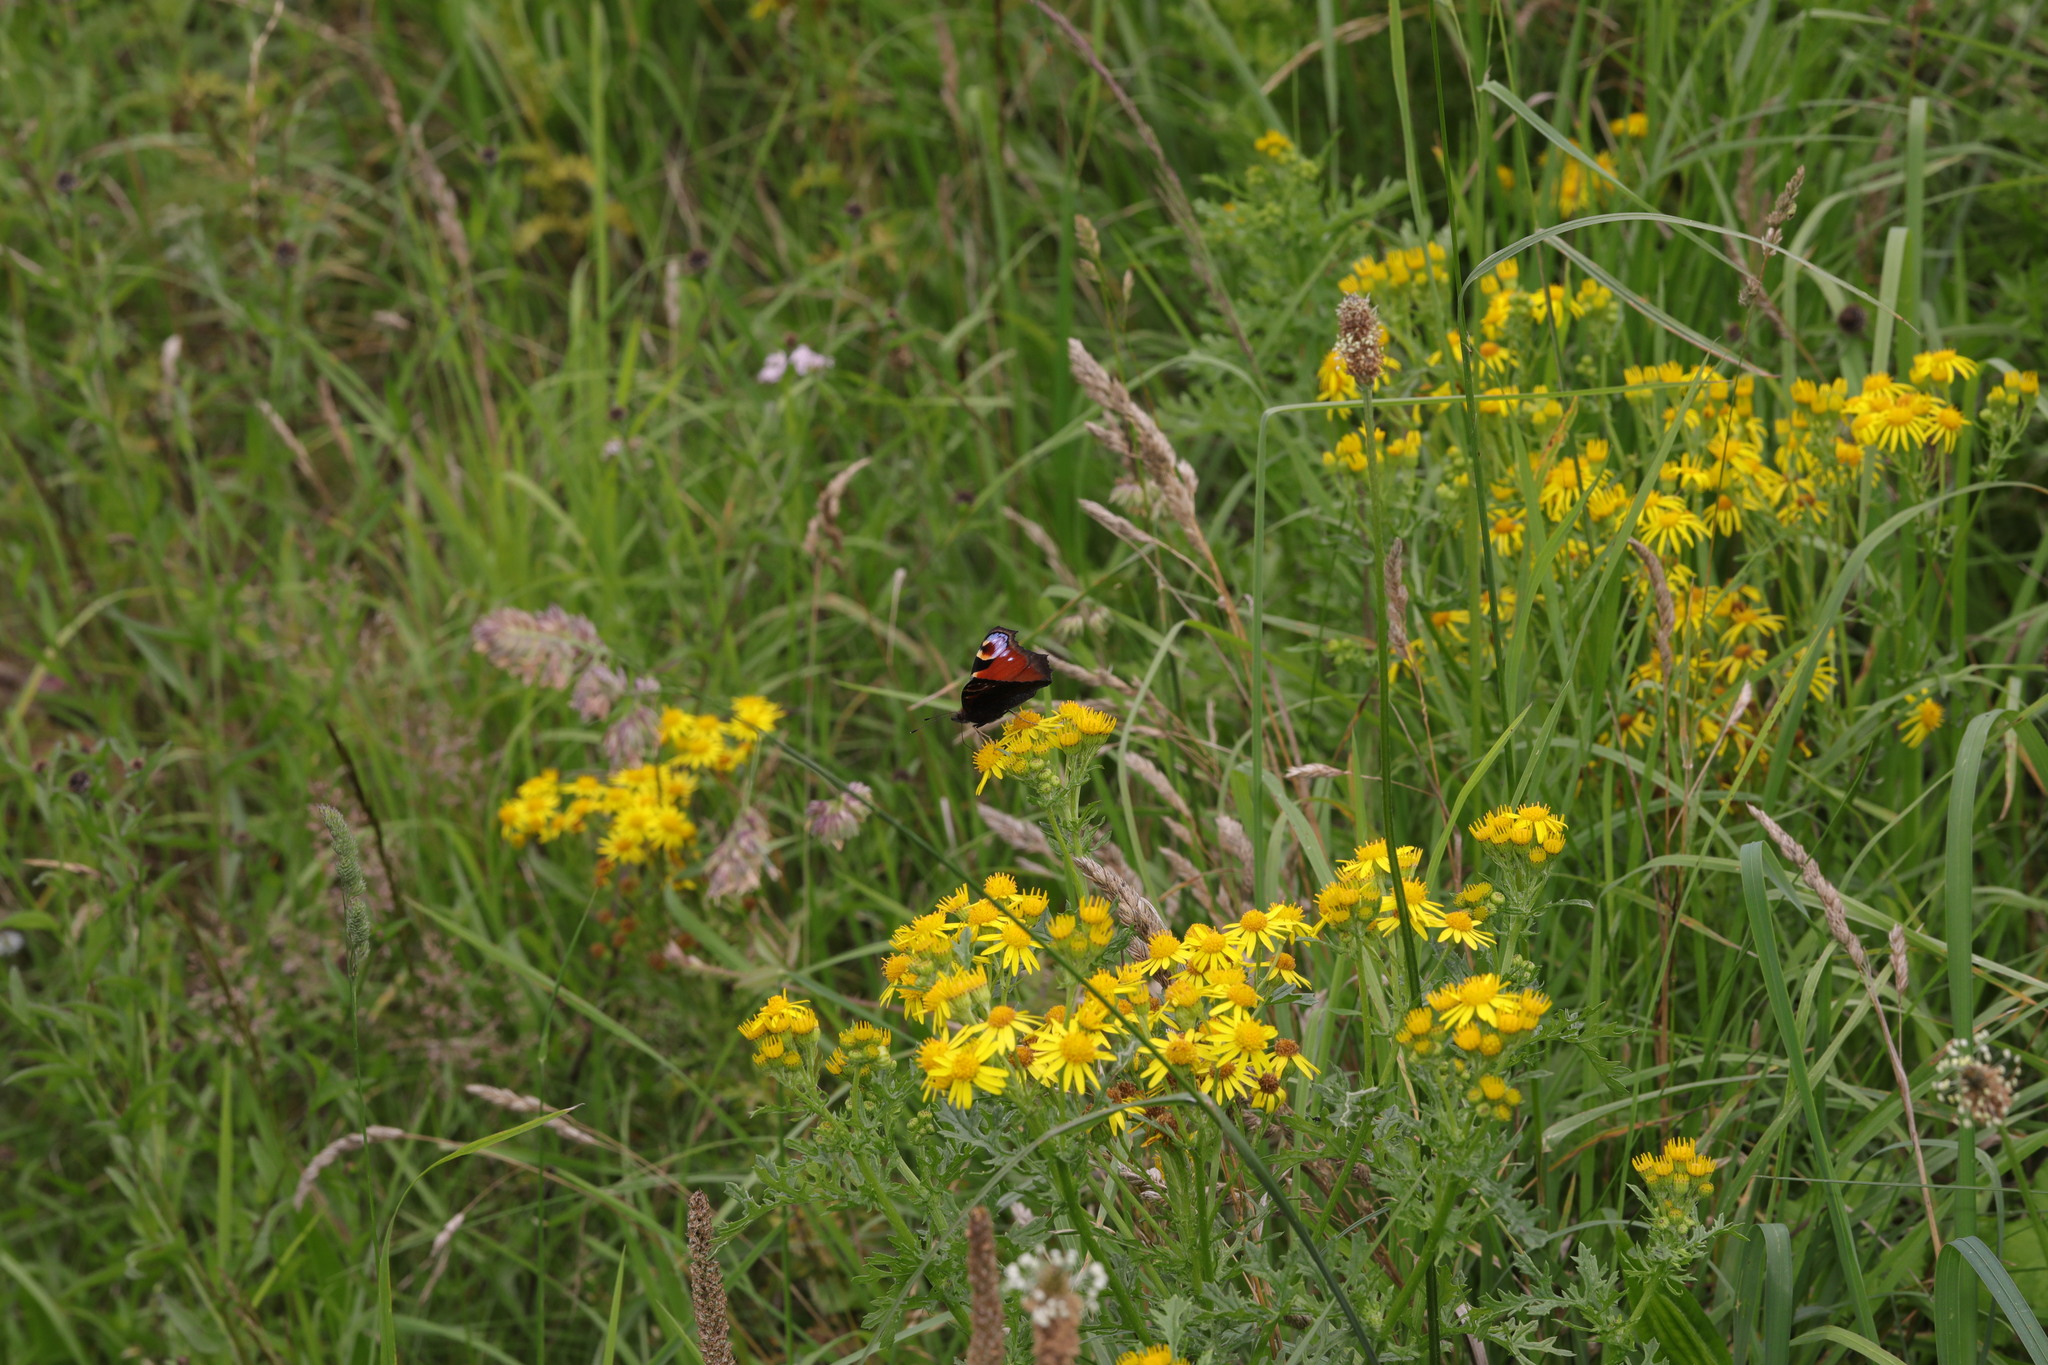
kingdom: Animalia
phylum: Arthropoda
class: Insecta
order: Lepidoptera
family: Nymphalidae
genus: Aglais
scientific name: Aglais io
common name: Peacock
